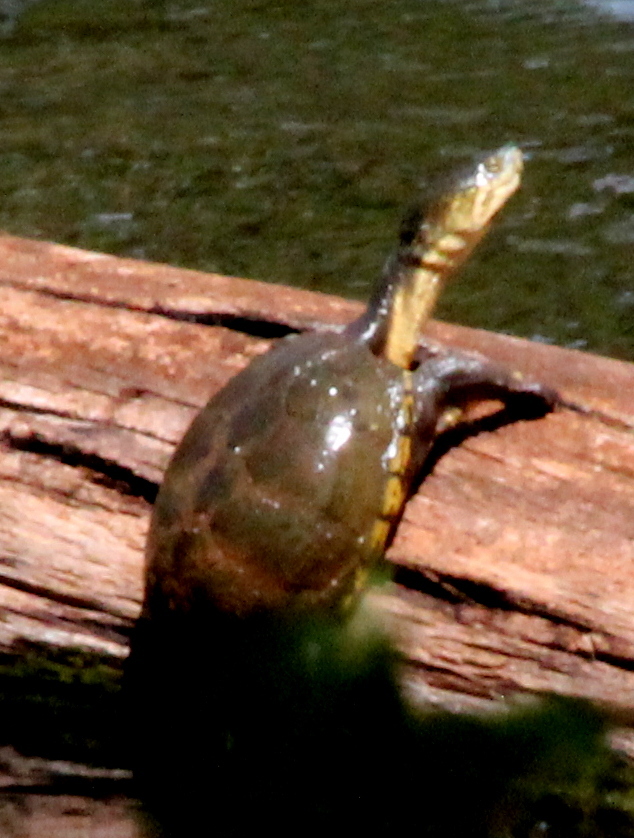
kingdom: Animalia
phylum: Chordata
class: Testudines
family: Kinosternidae
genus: Kinosternon
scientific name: Kinosternon flavescens
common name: Yellow mud turtle
